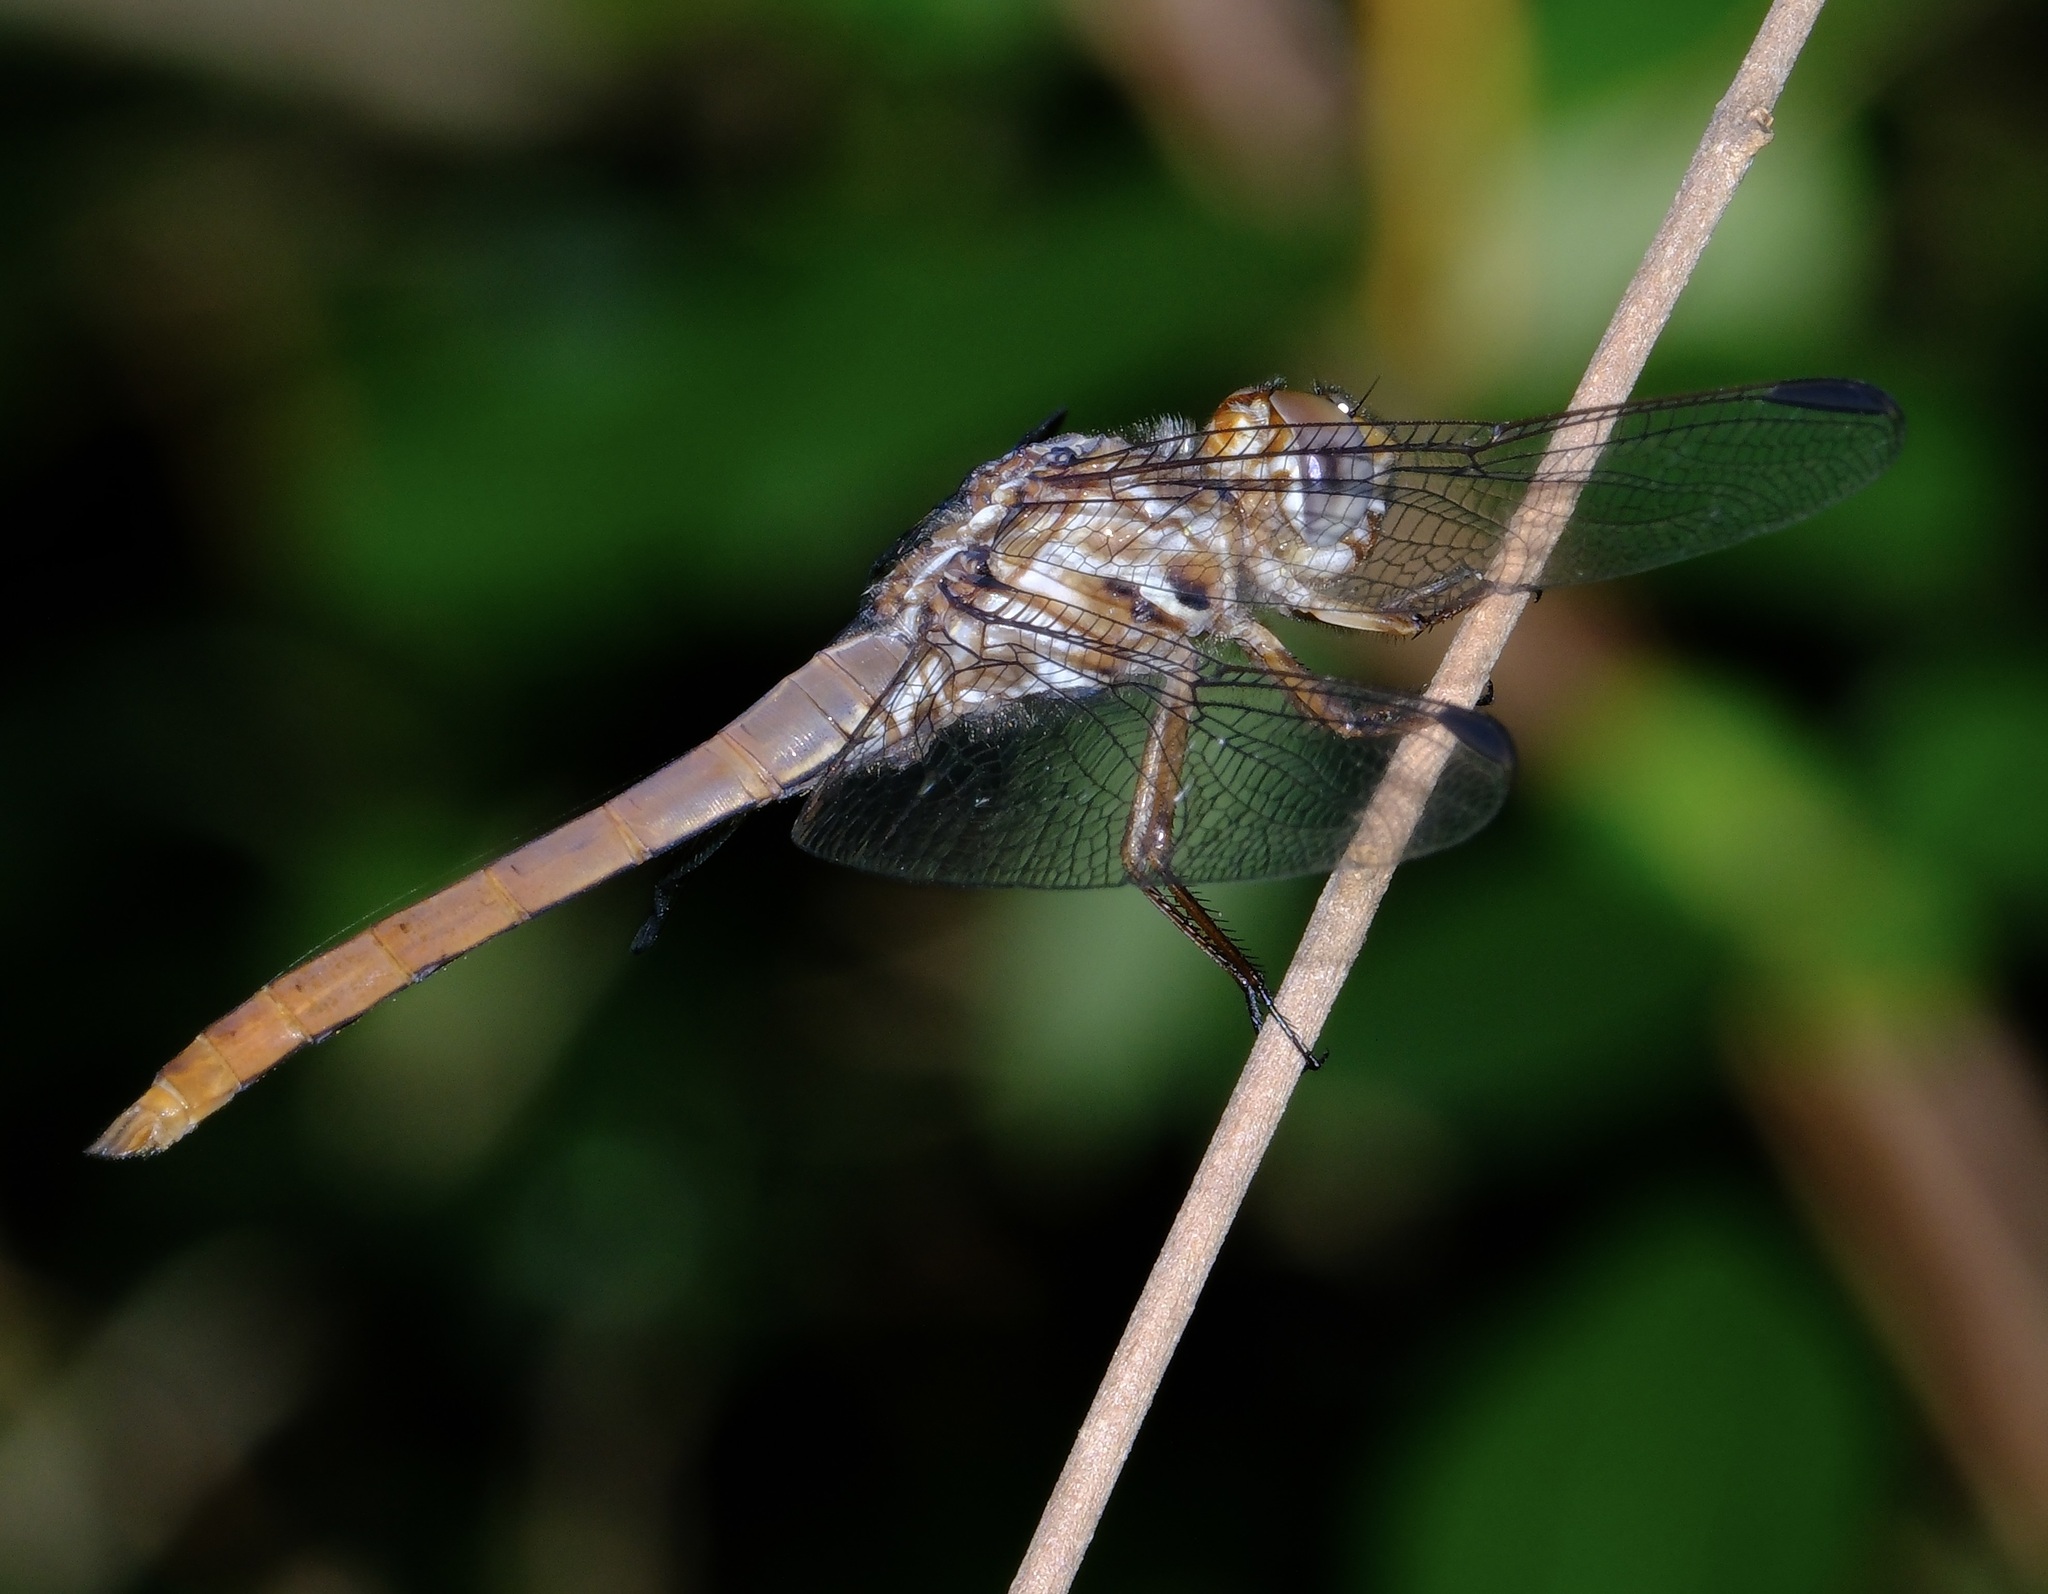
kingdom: Animalia
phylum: Arthropoda
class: Insecta
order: Odonata
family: Libellulidae
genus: Orthemis
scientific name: Orthemis ferruginea
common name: Roseate skimmer
